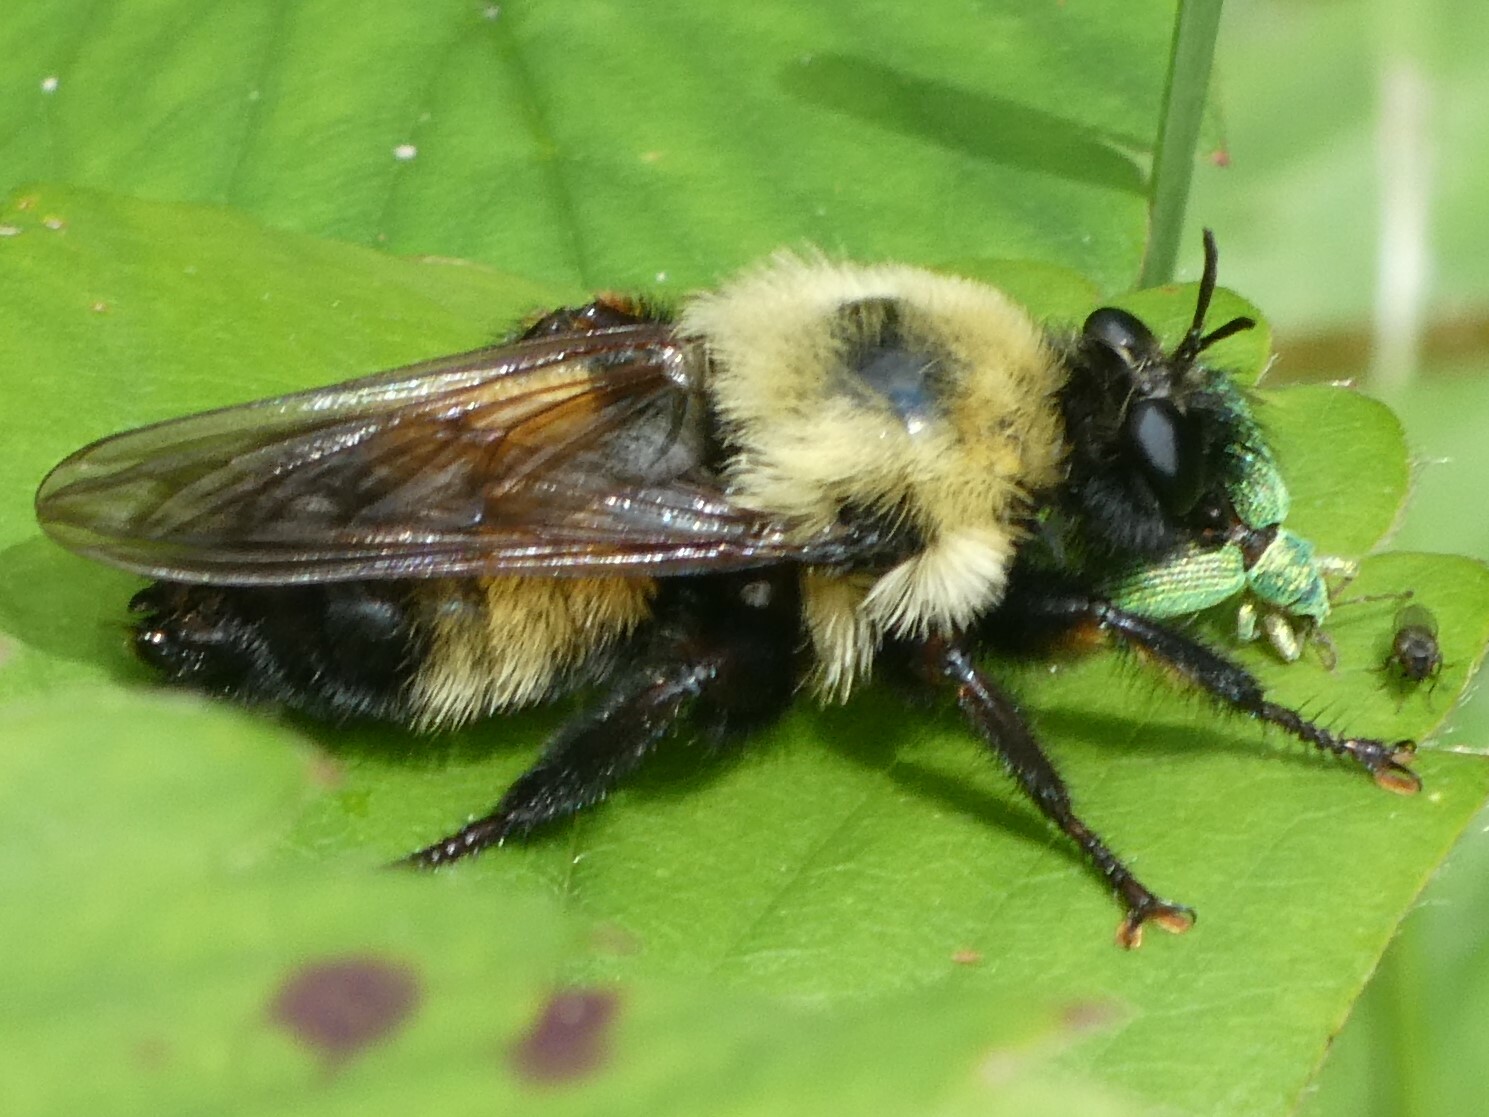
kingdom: Animalia
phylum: Arthropoda
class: Insecta
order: Diptera
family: Asilidae
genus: Laphria
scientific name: Laphria thoracica
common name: Bumble bee mimic robber fly
